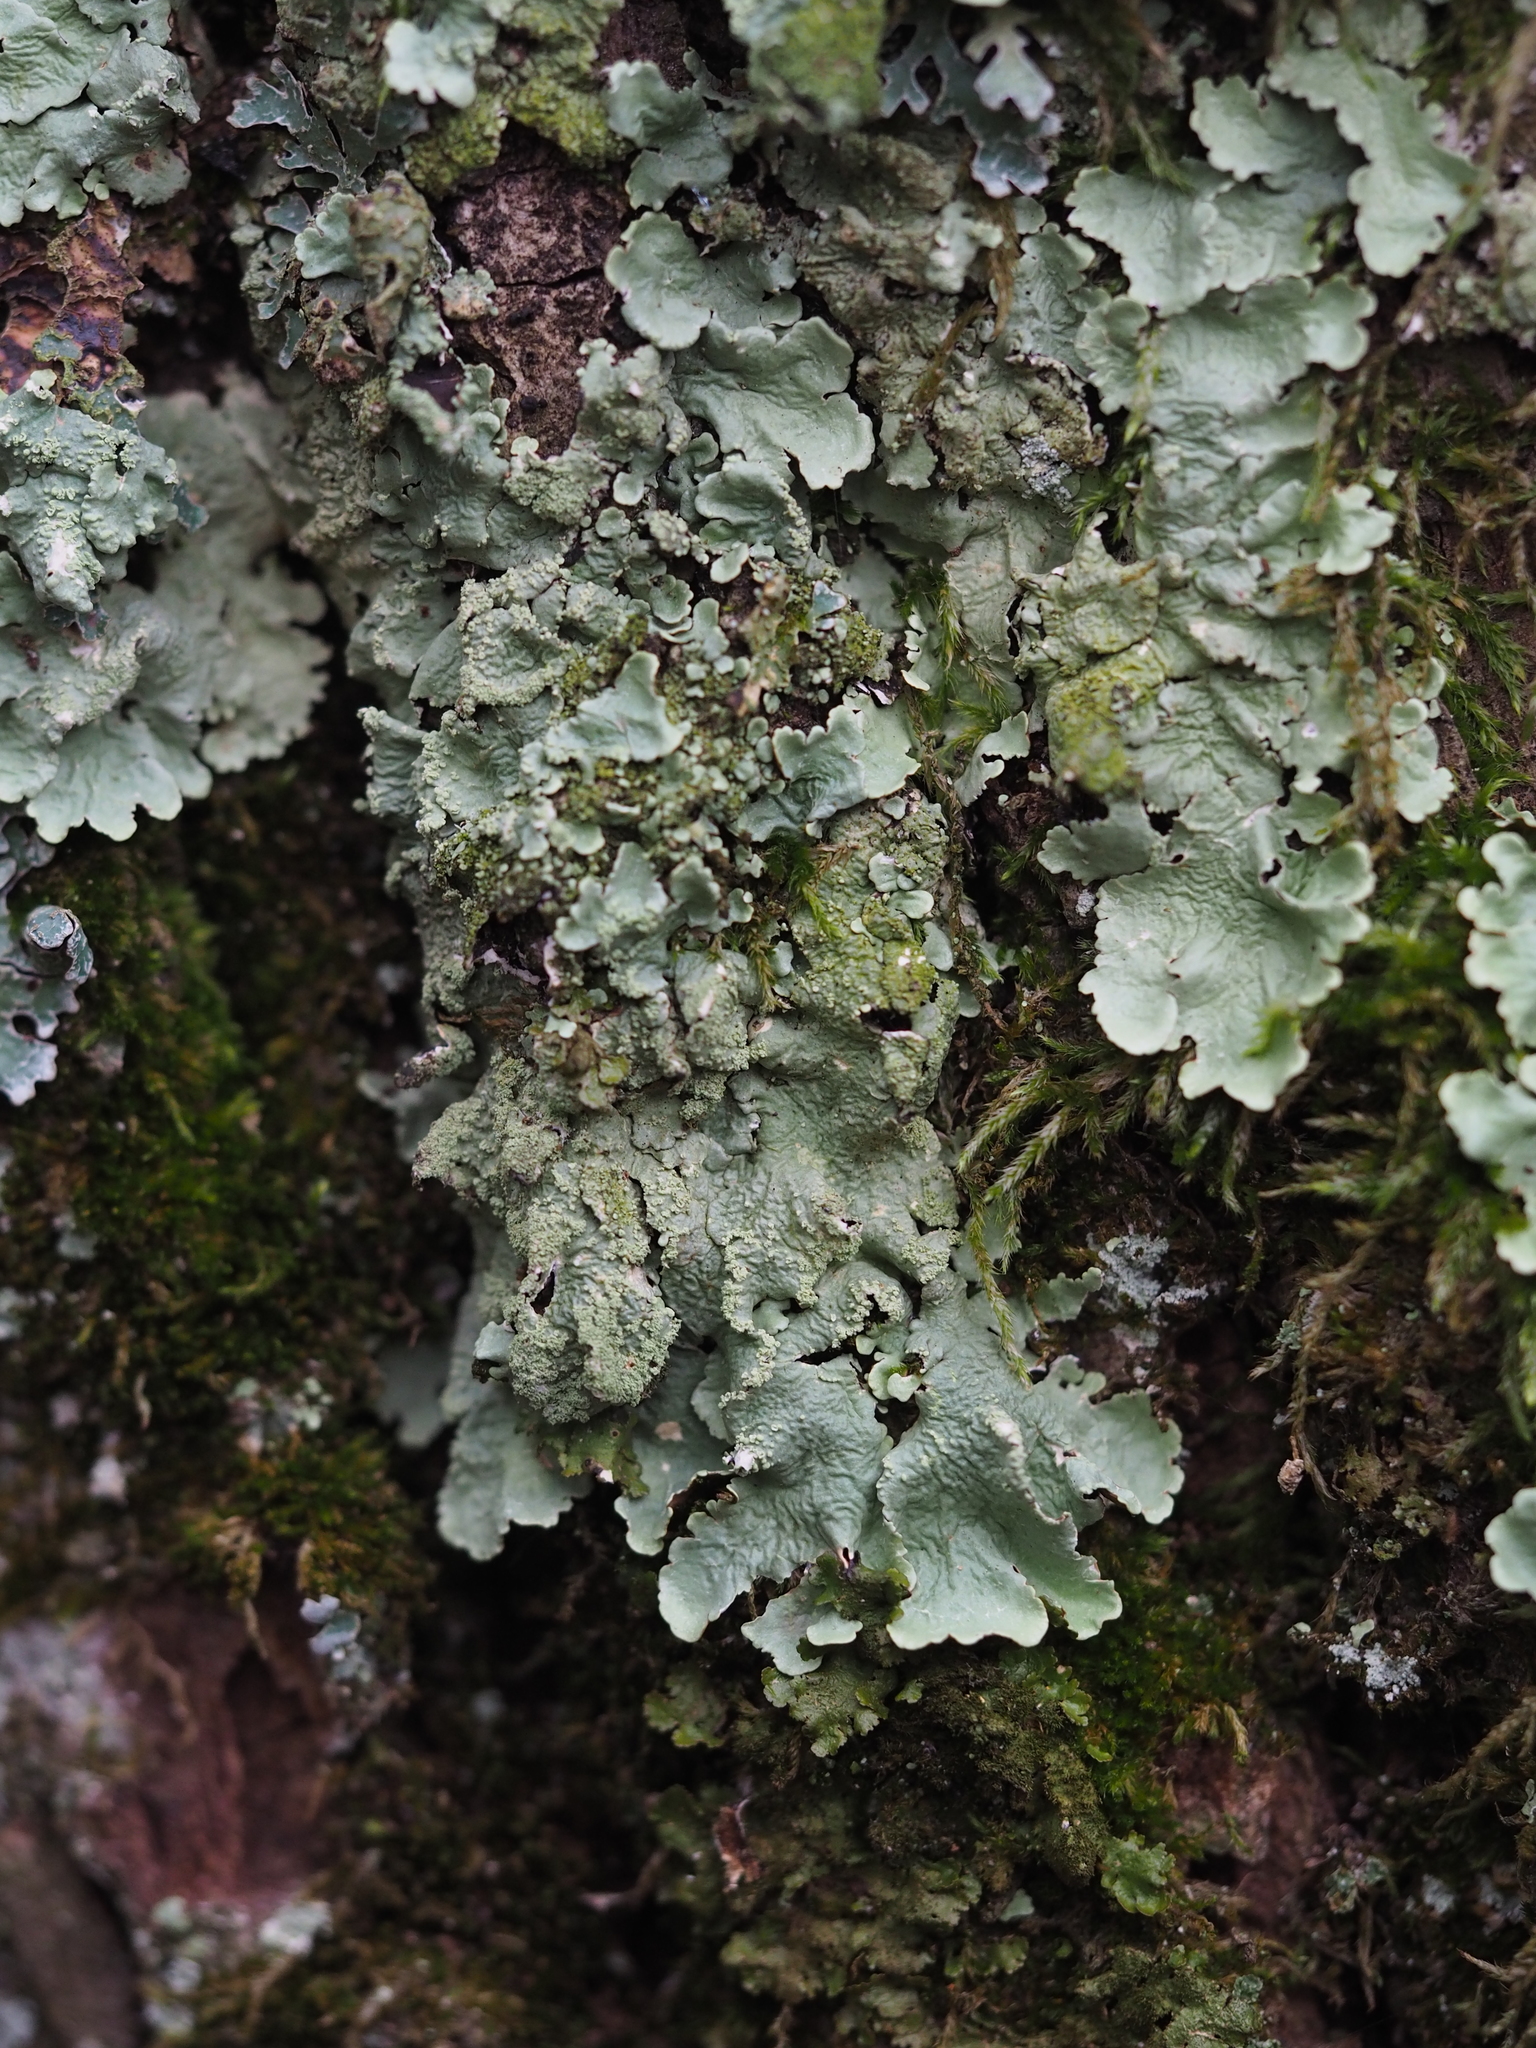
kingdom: Fungi
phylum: Ascomycota
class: Lecanoromycetes
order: Lecanorales
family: Parmeliaceae
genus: Flavoparmelia
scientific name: Flavoparmelia caperata
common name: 40-mile per hour lichen
